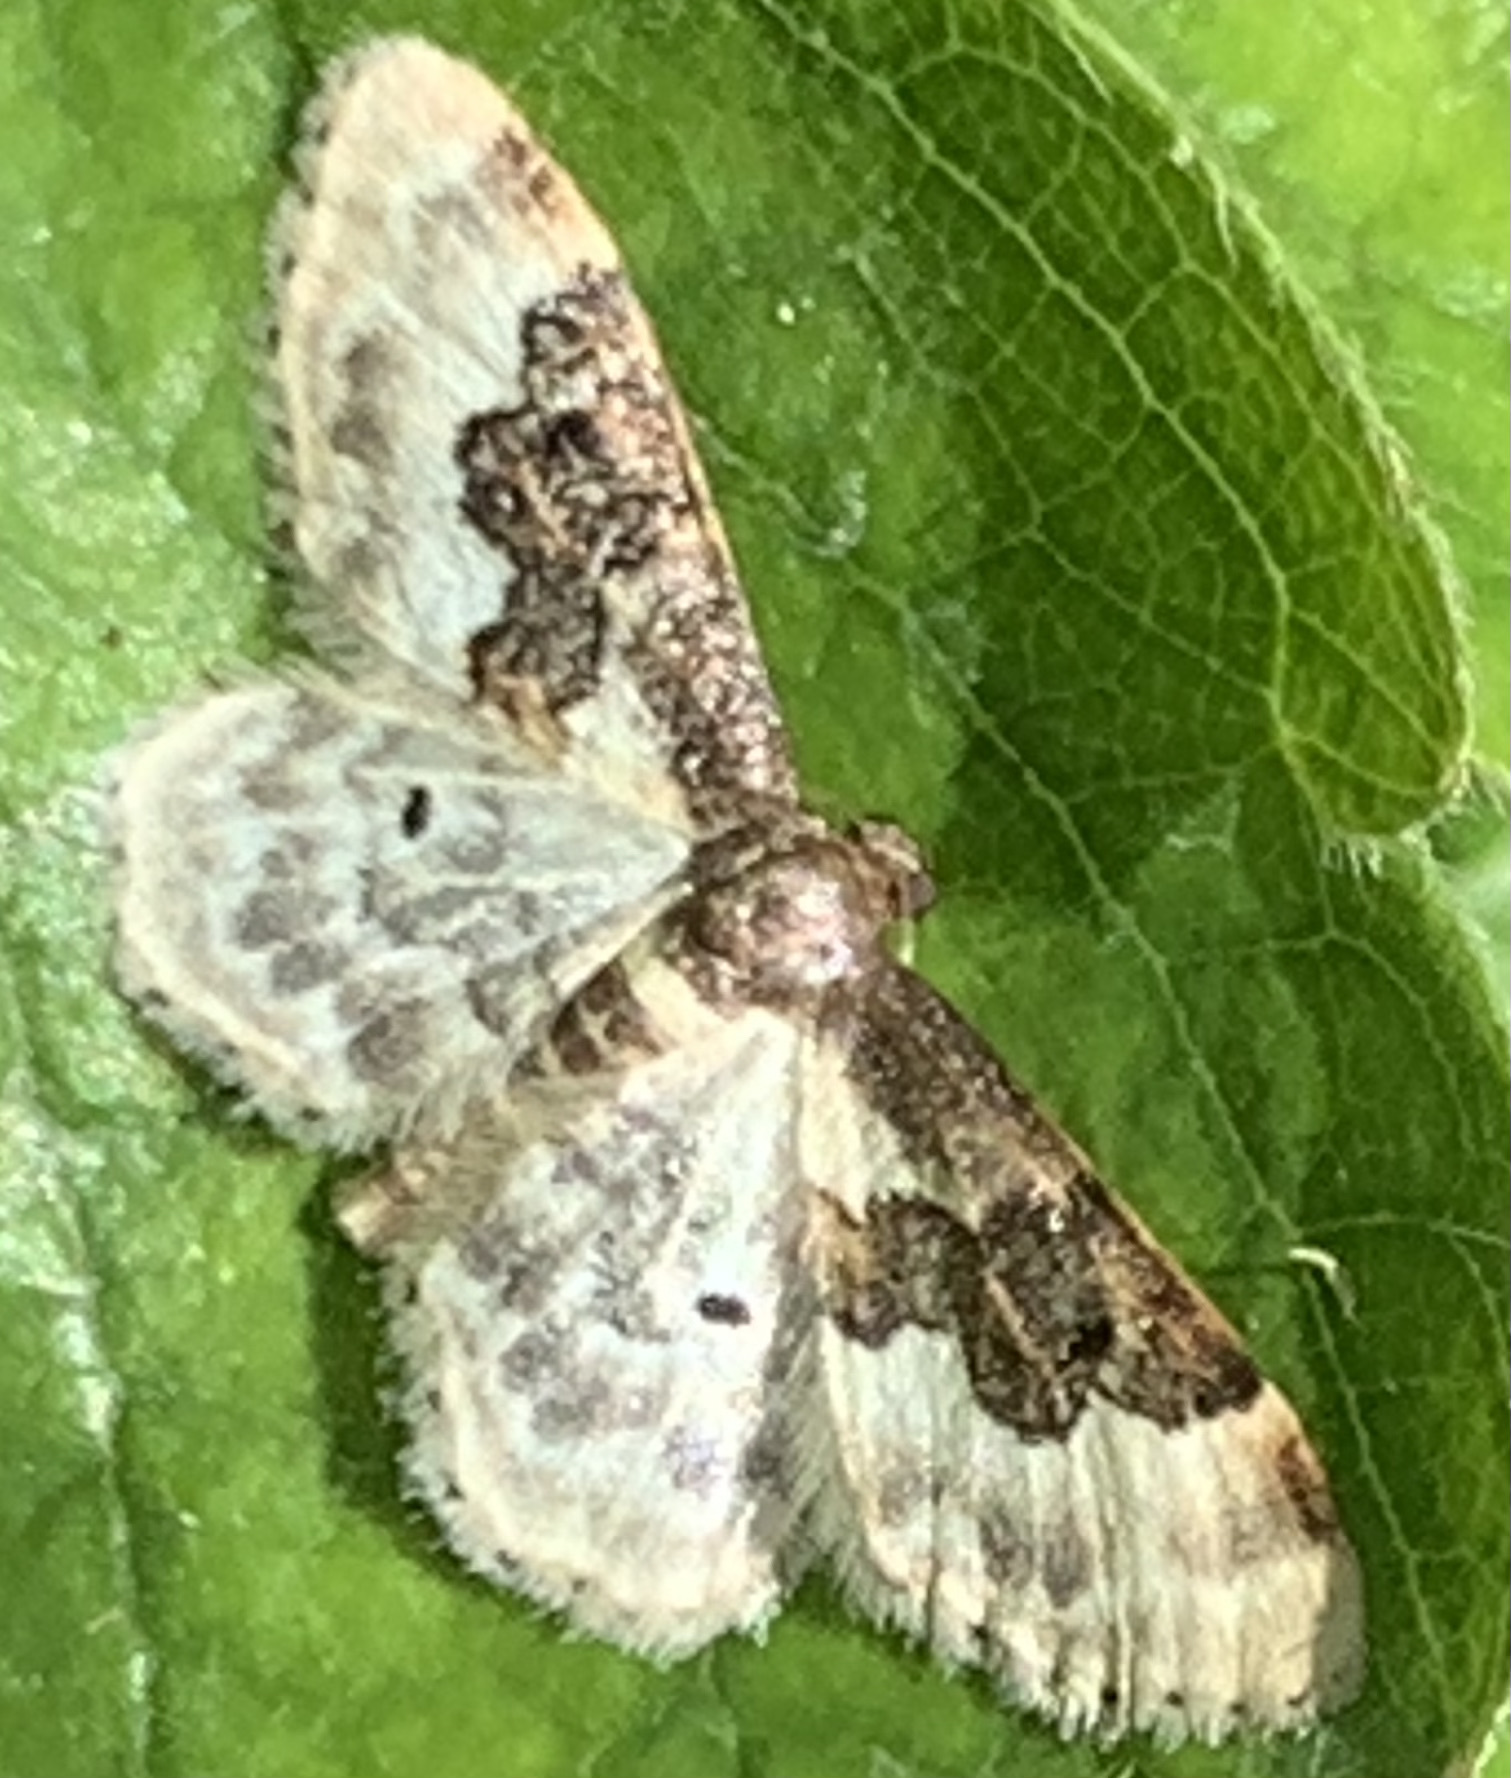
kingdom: Animalia
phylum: Arthropoda
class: Insecta
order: Lepidoptera
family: Geometridae
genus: Idaea
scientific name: Idaea rusticata
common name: Least carpet
